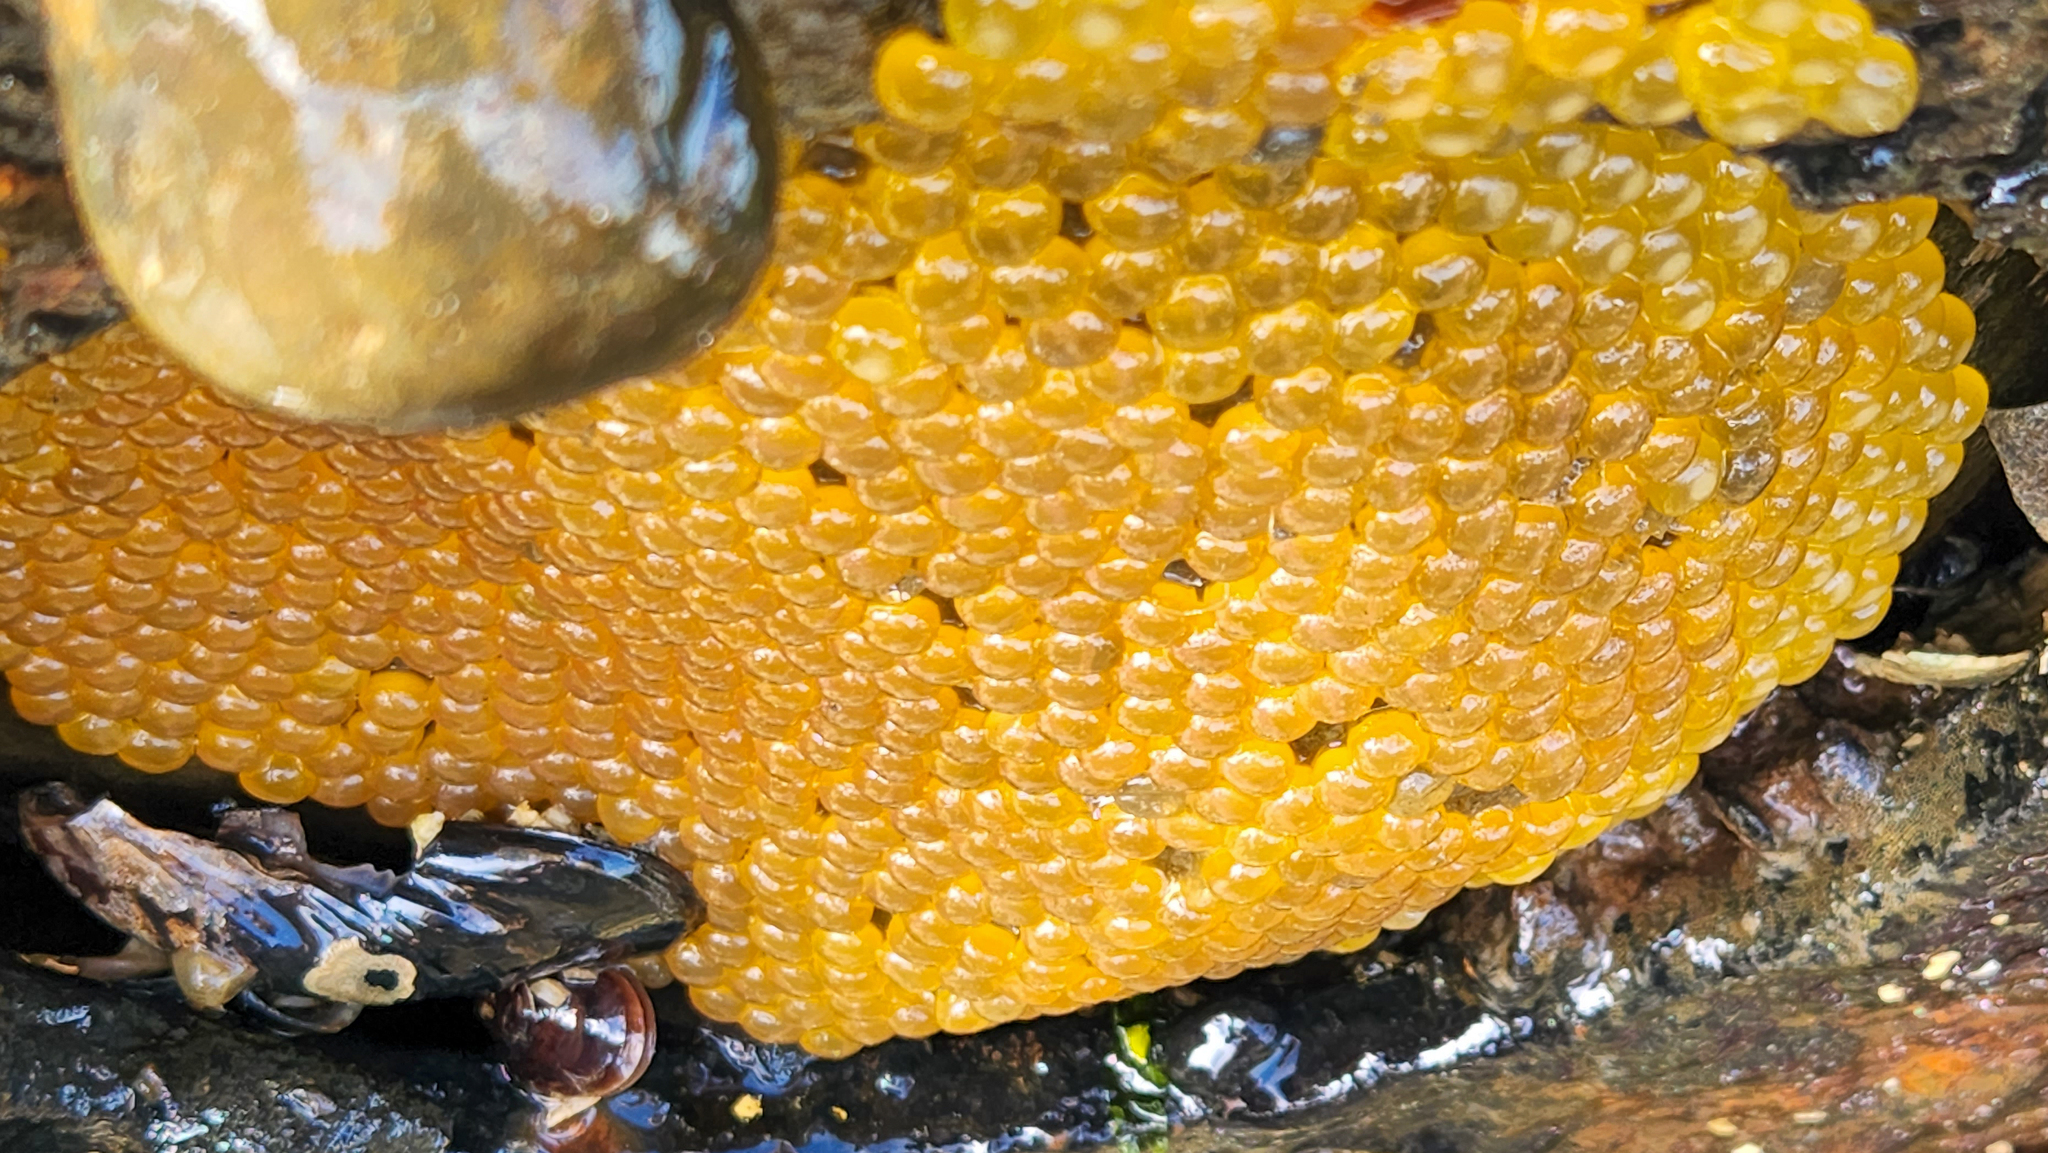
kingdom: Animalia
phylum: Chordata
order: Batrachoidiformes
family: Batrachoididae
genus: Porichthys
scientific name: Porichthys notatus
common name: Plainfin midshipman
